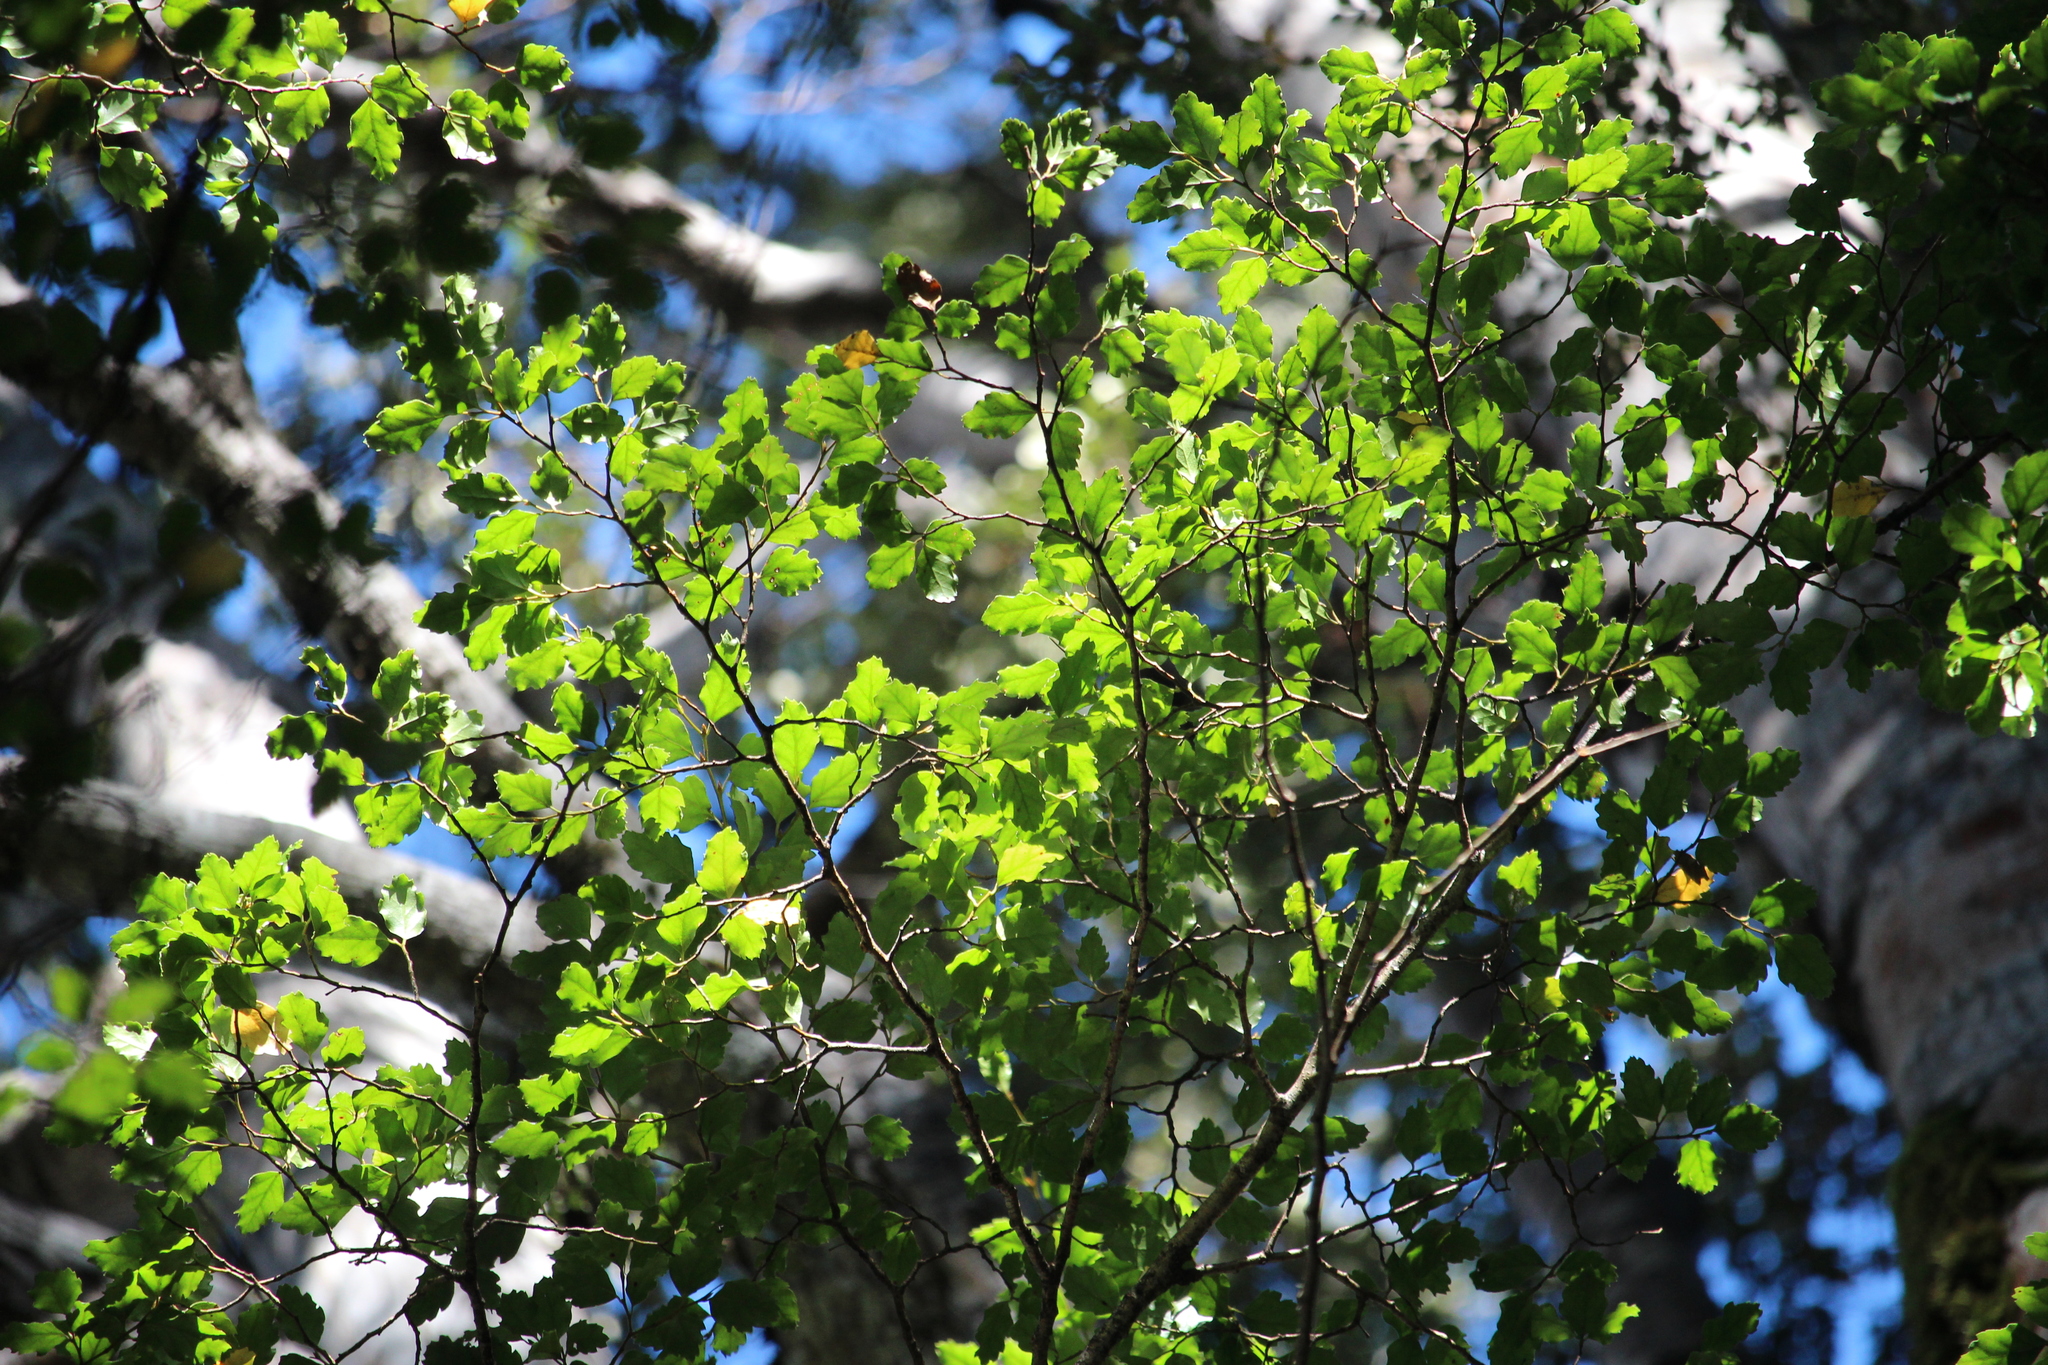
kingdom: Plantae
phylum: Tracheophyta
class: Magnoliopsida
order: Fagales
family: Nothofagaceae
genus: Nothofagus
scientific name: Nothofagus fusca
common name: Red beech
